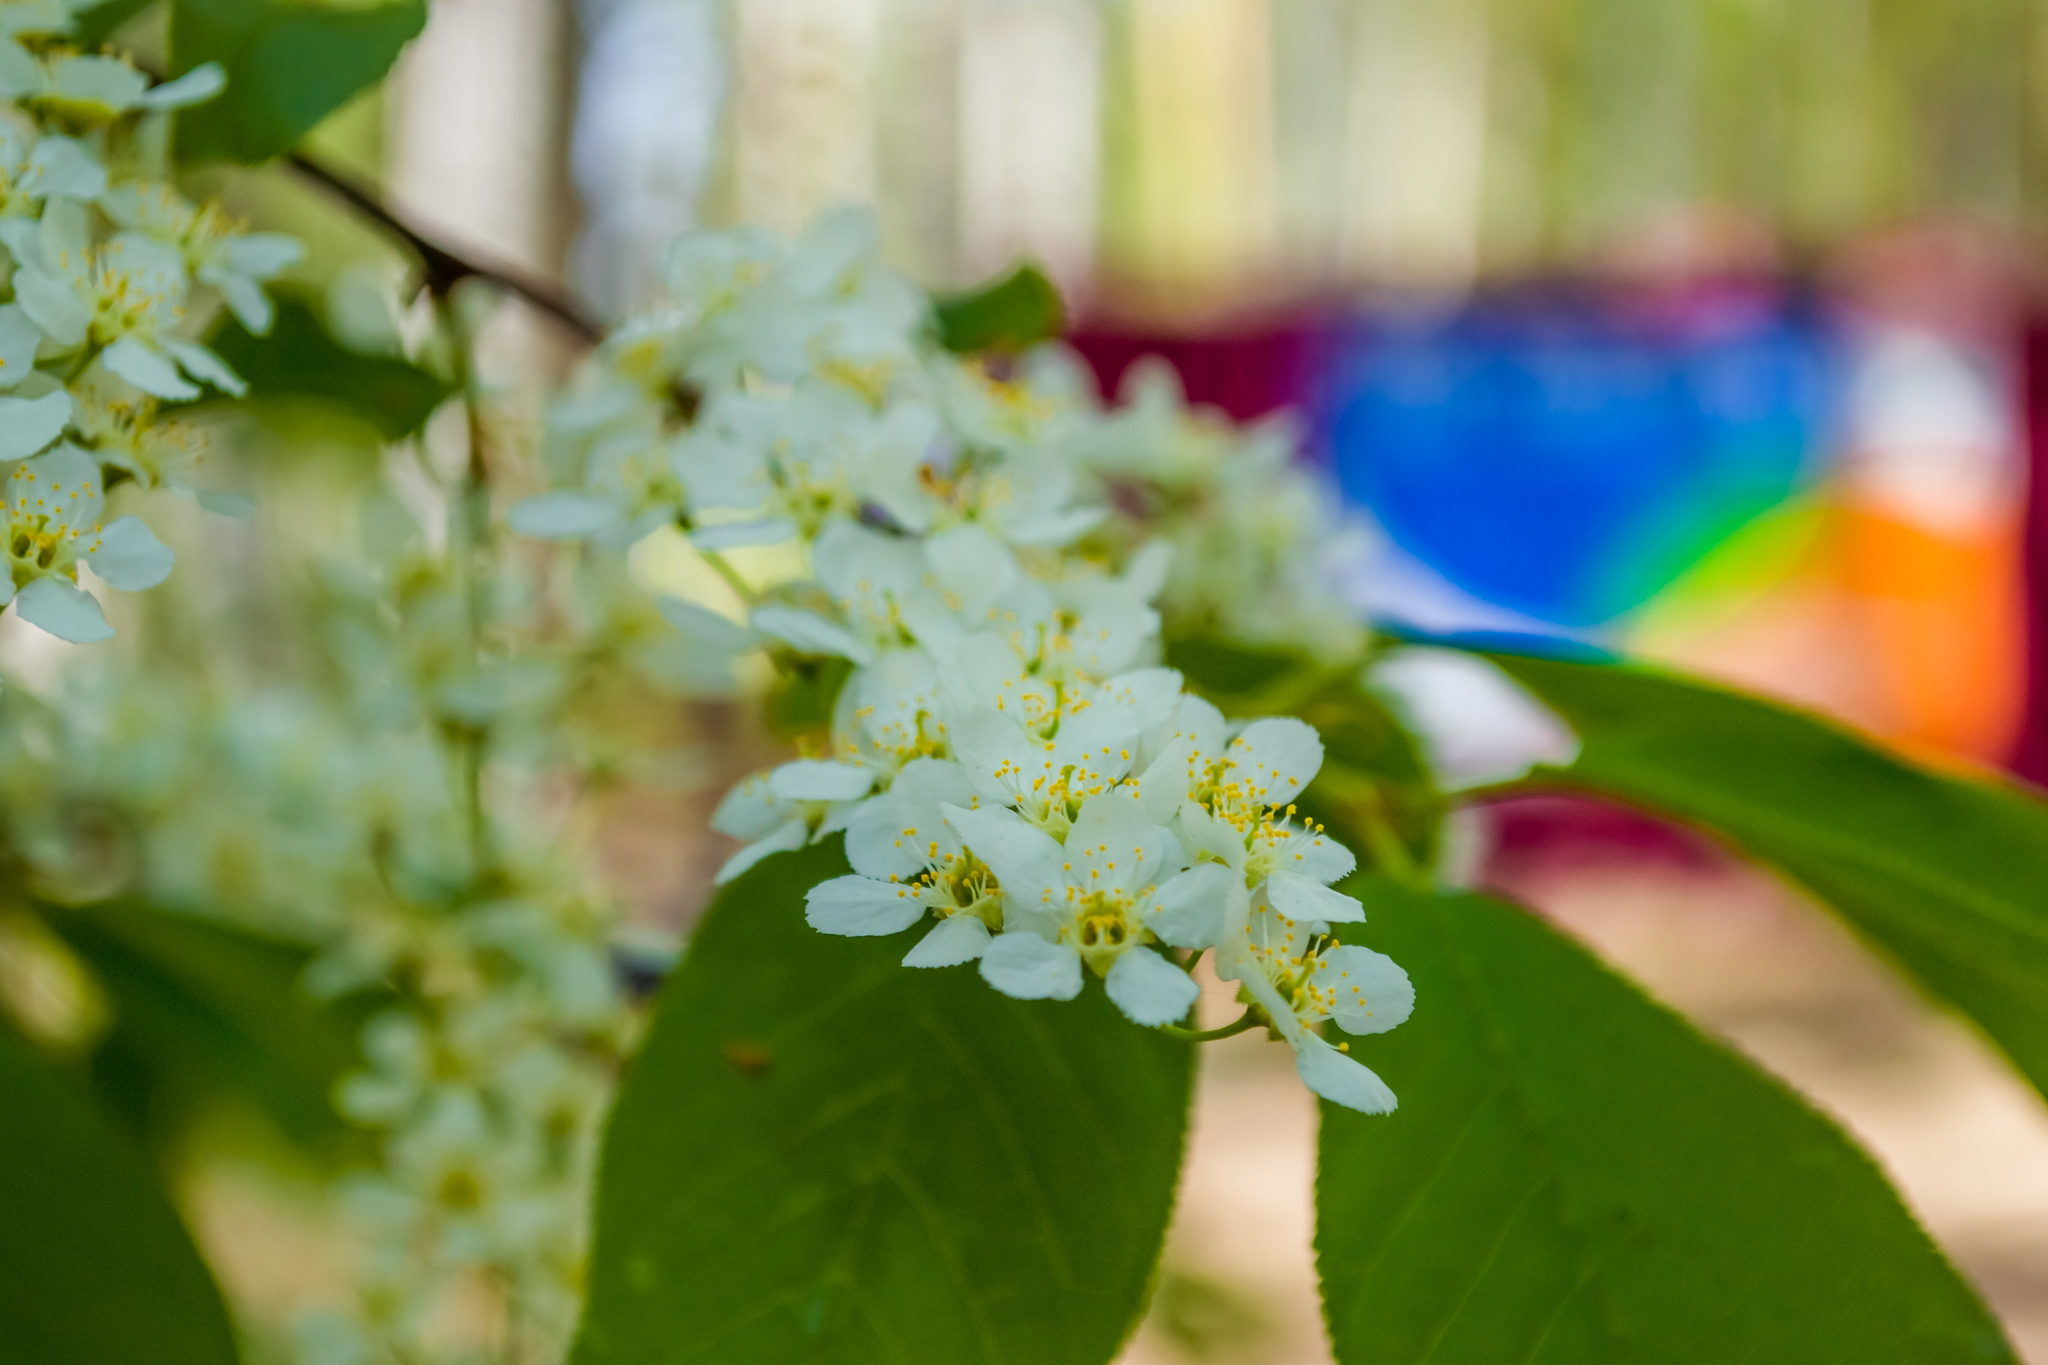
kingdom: Plantae
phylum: Tracheophyta
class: Magnoliopsida
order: Rosales
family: Rosaceae
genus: Prunus
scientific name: Prunus padus
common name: Bird cherry
